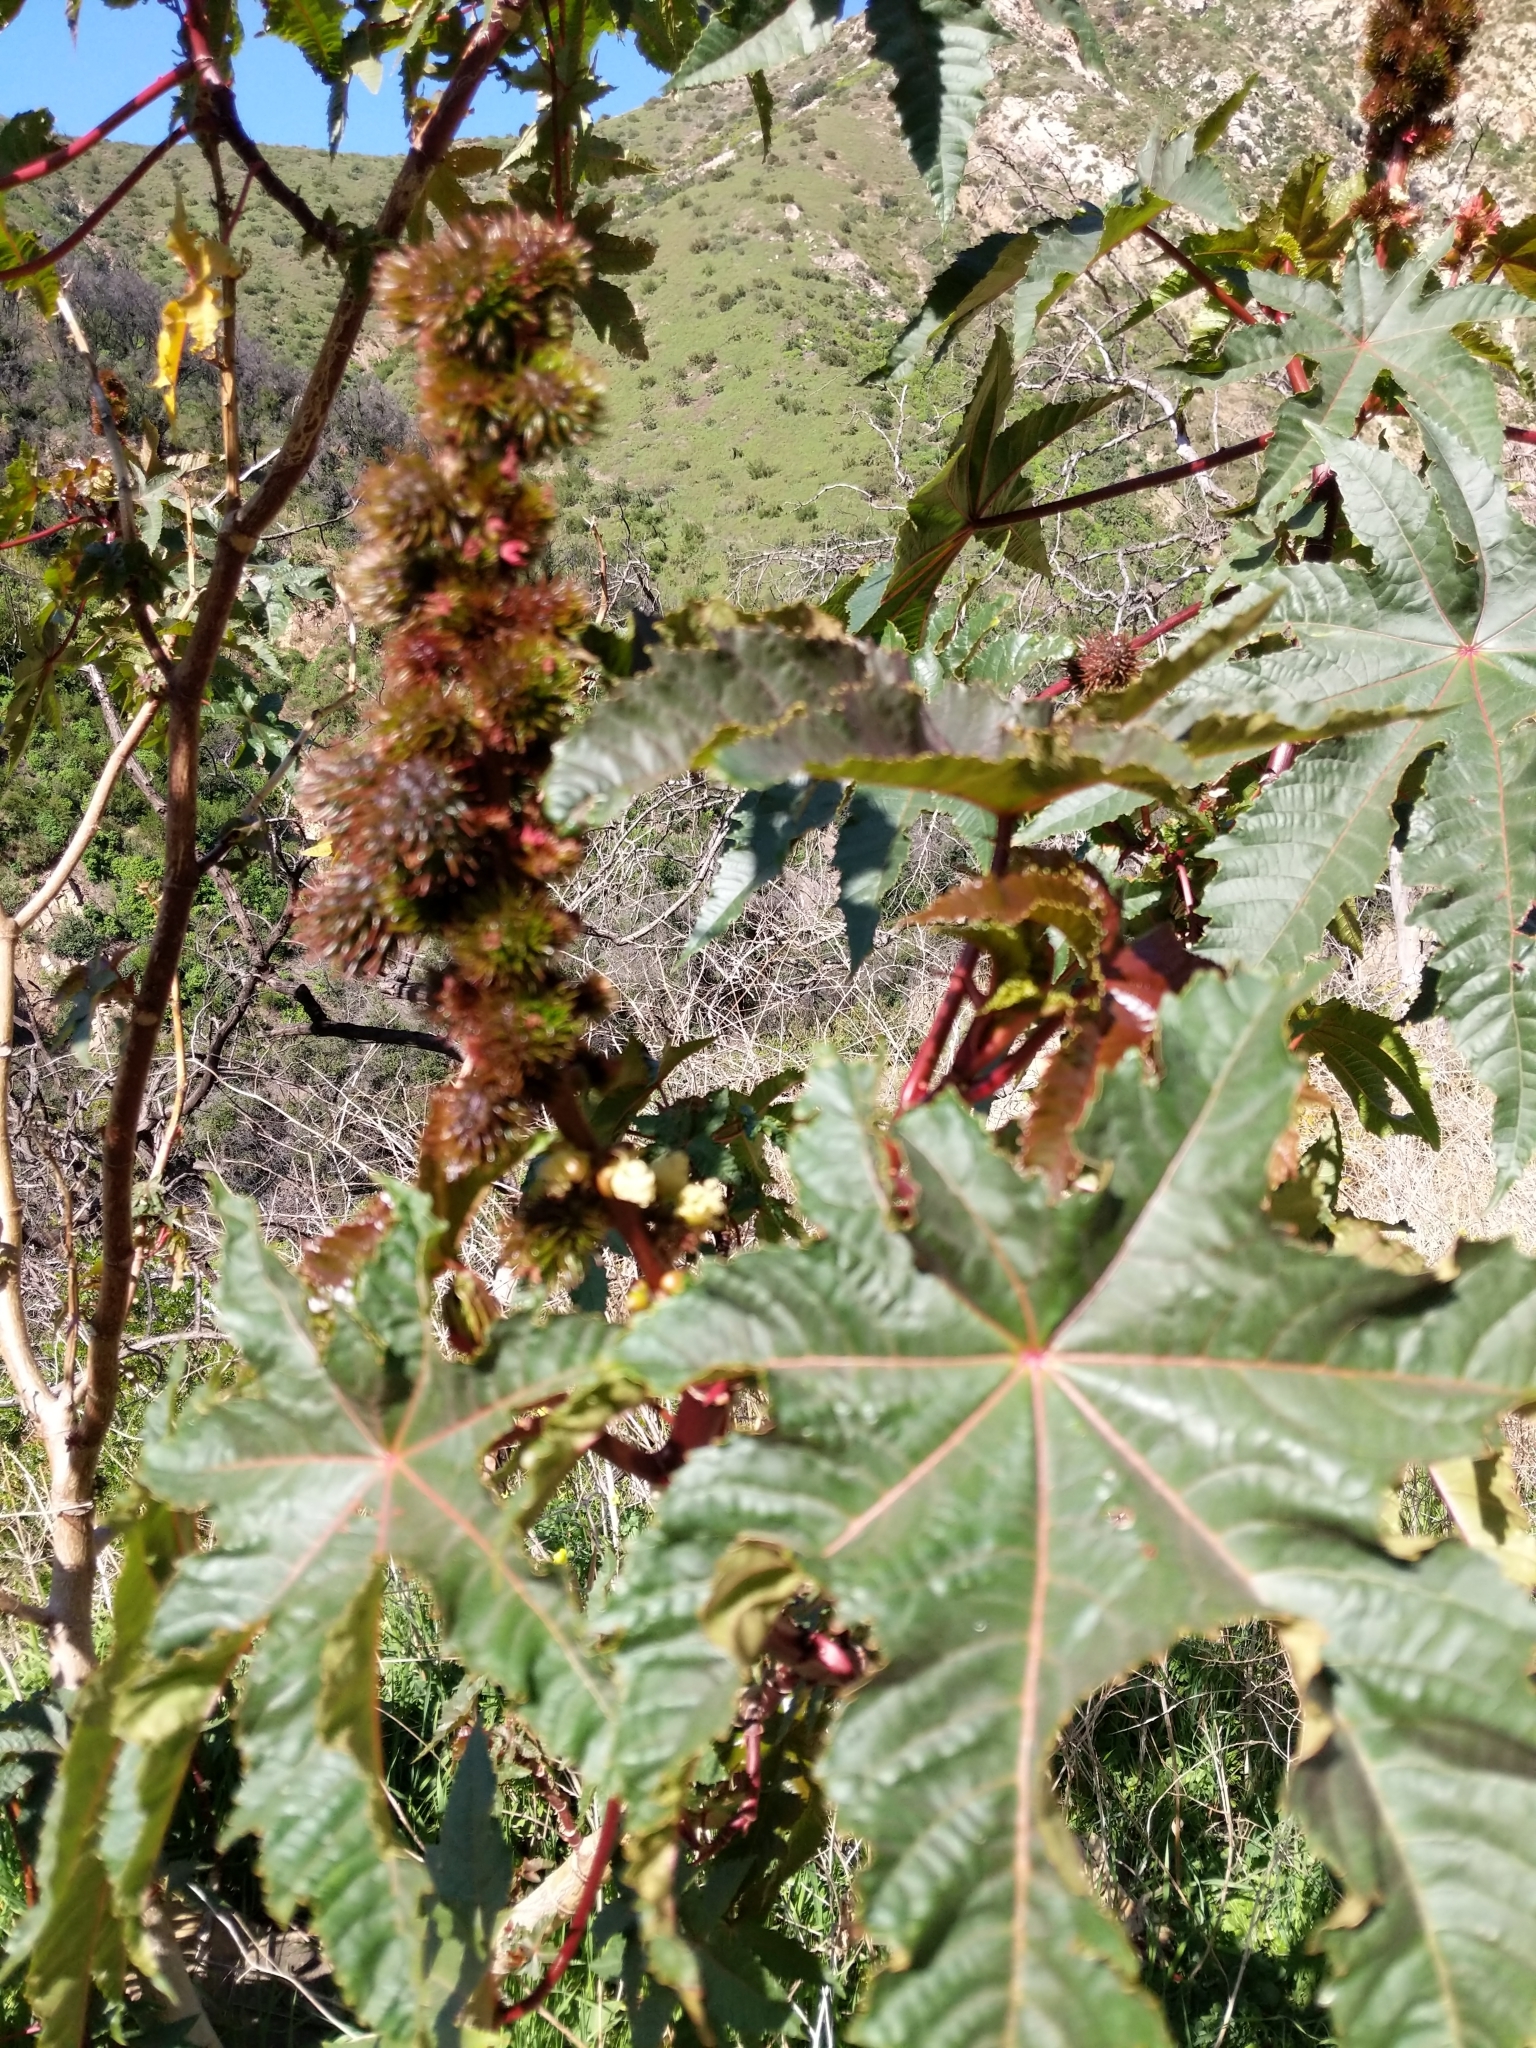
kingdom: Plantae
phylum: Tracheophyta
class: Magnoliopsida
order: Malpighiales
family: Euphorbiaceae
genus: Ricinus
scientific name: Ricinus communis
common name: Castor-oil-plant
